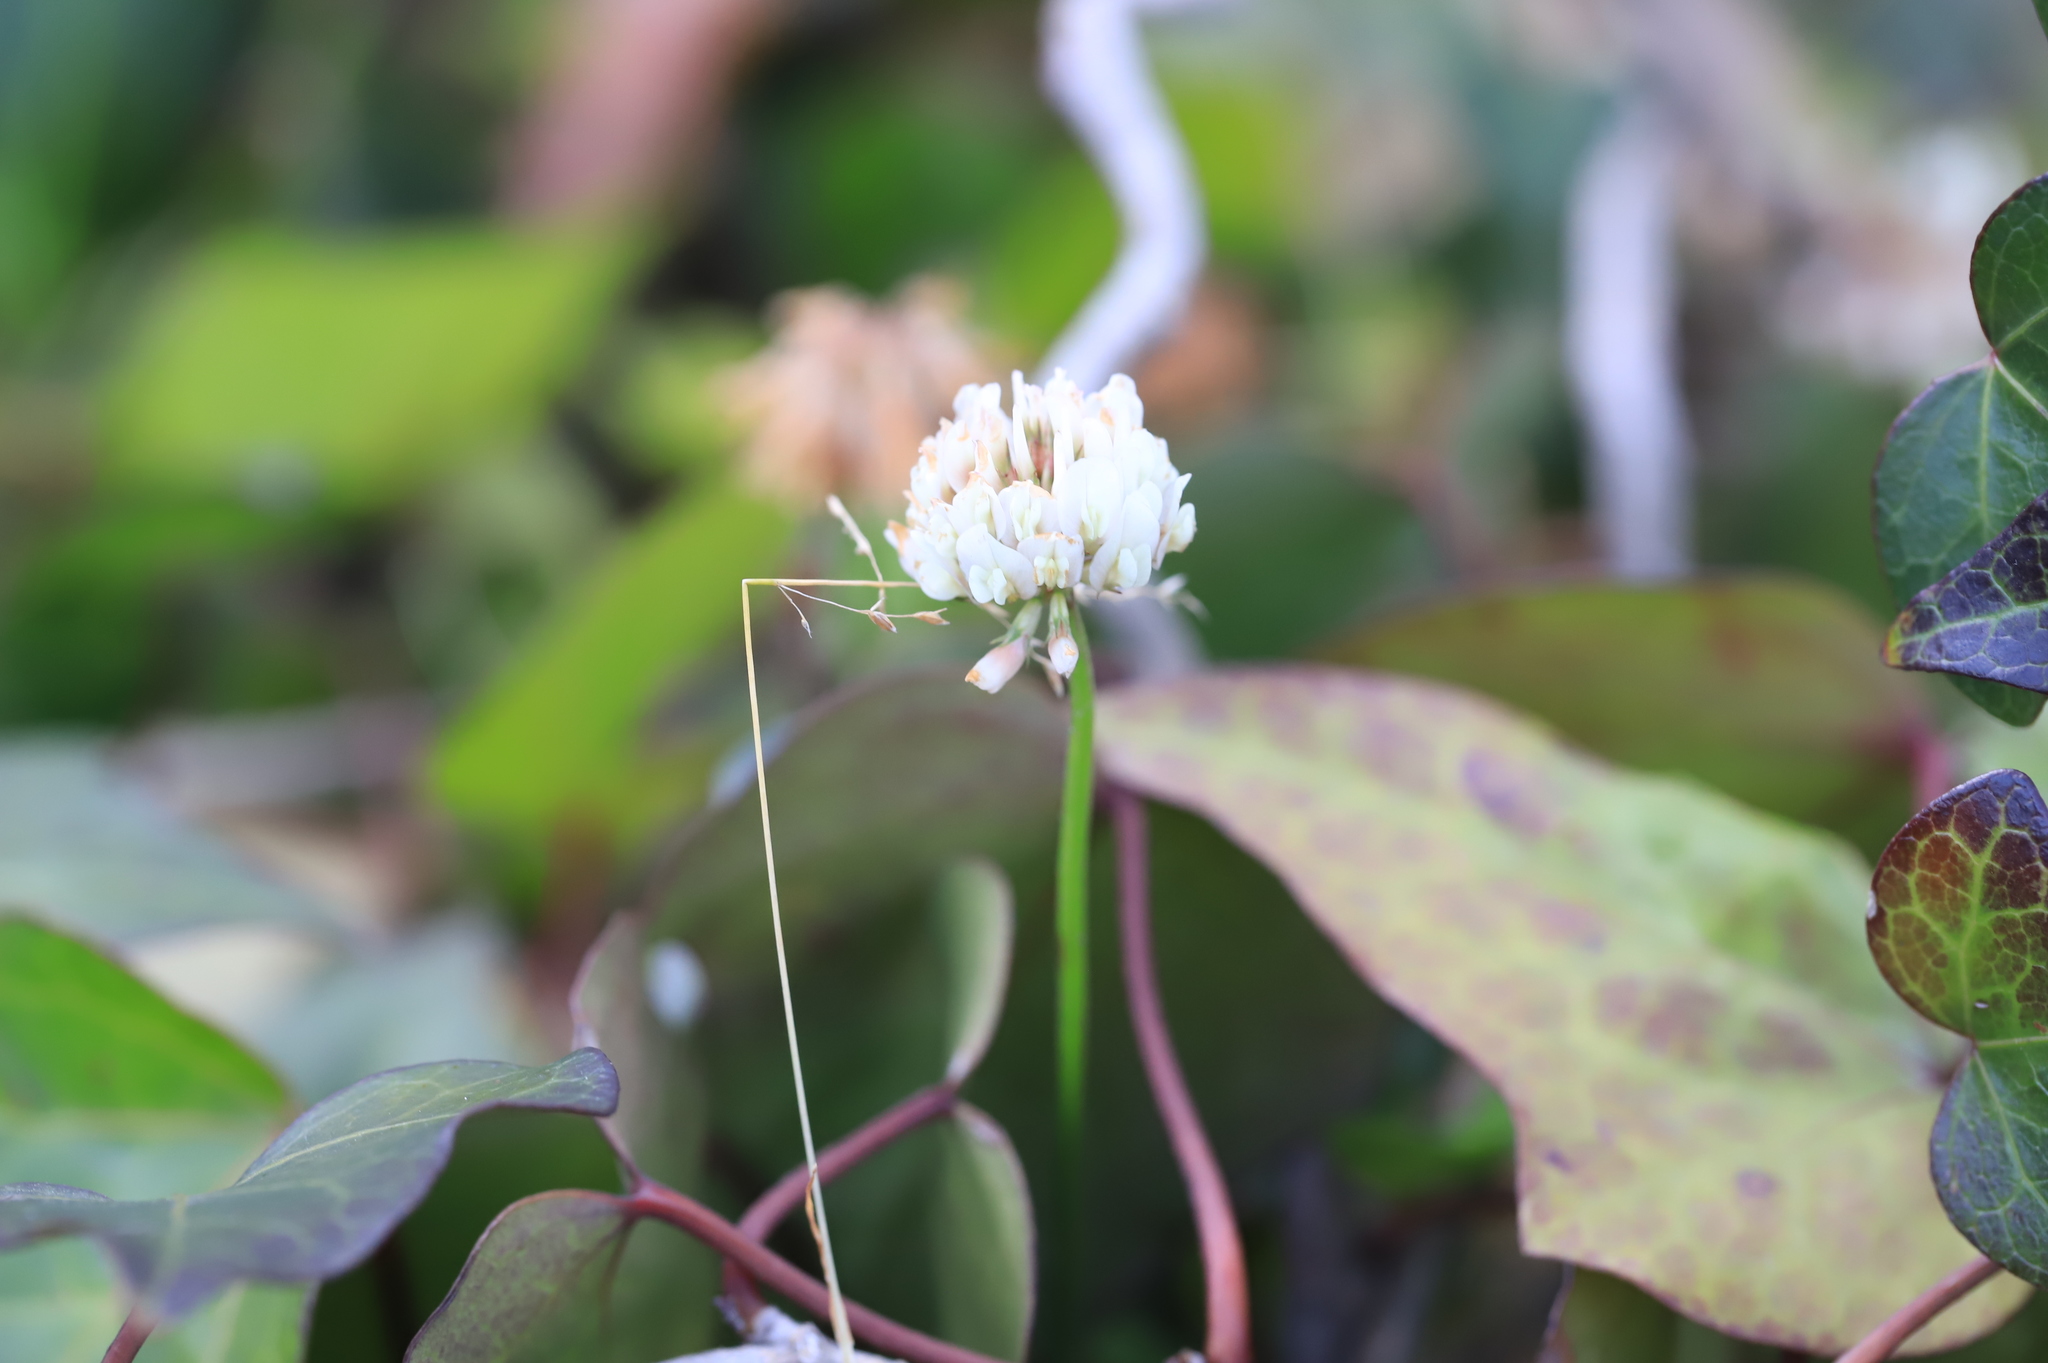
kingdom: Plantae
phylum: Tracheophyta
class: Magnoliopsida
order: Fabales
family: Fabaceae
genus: Trifolium
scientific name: Trifolium repens
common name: White clover
